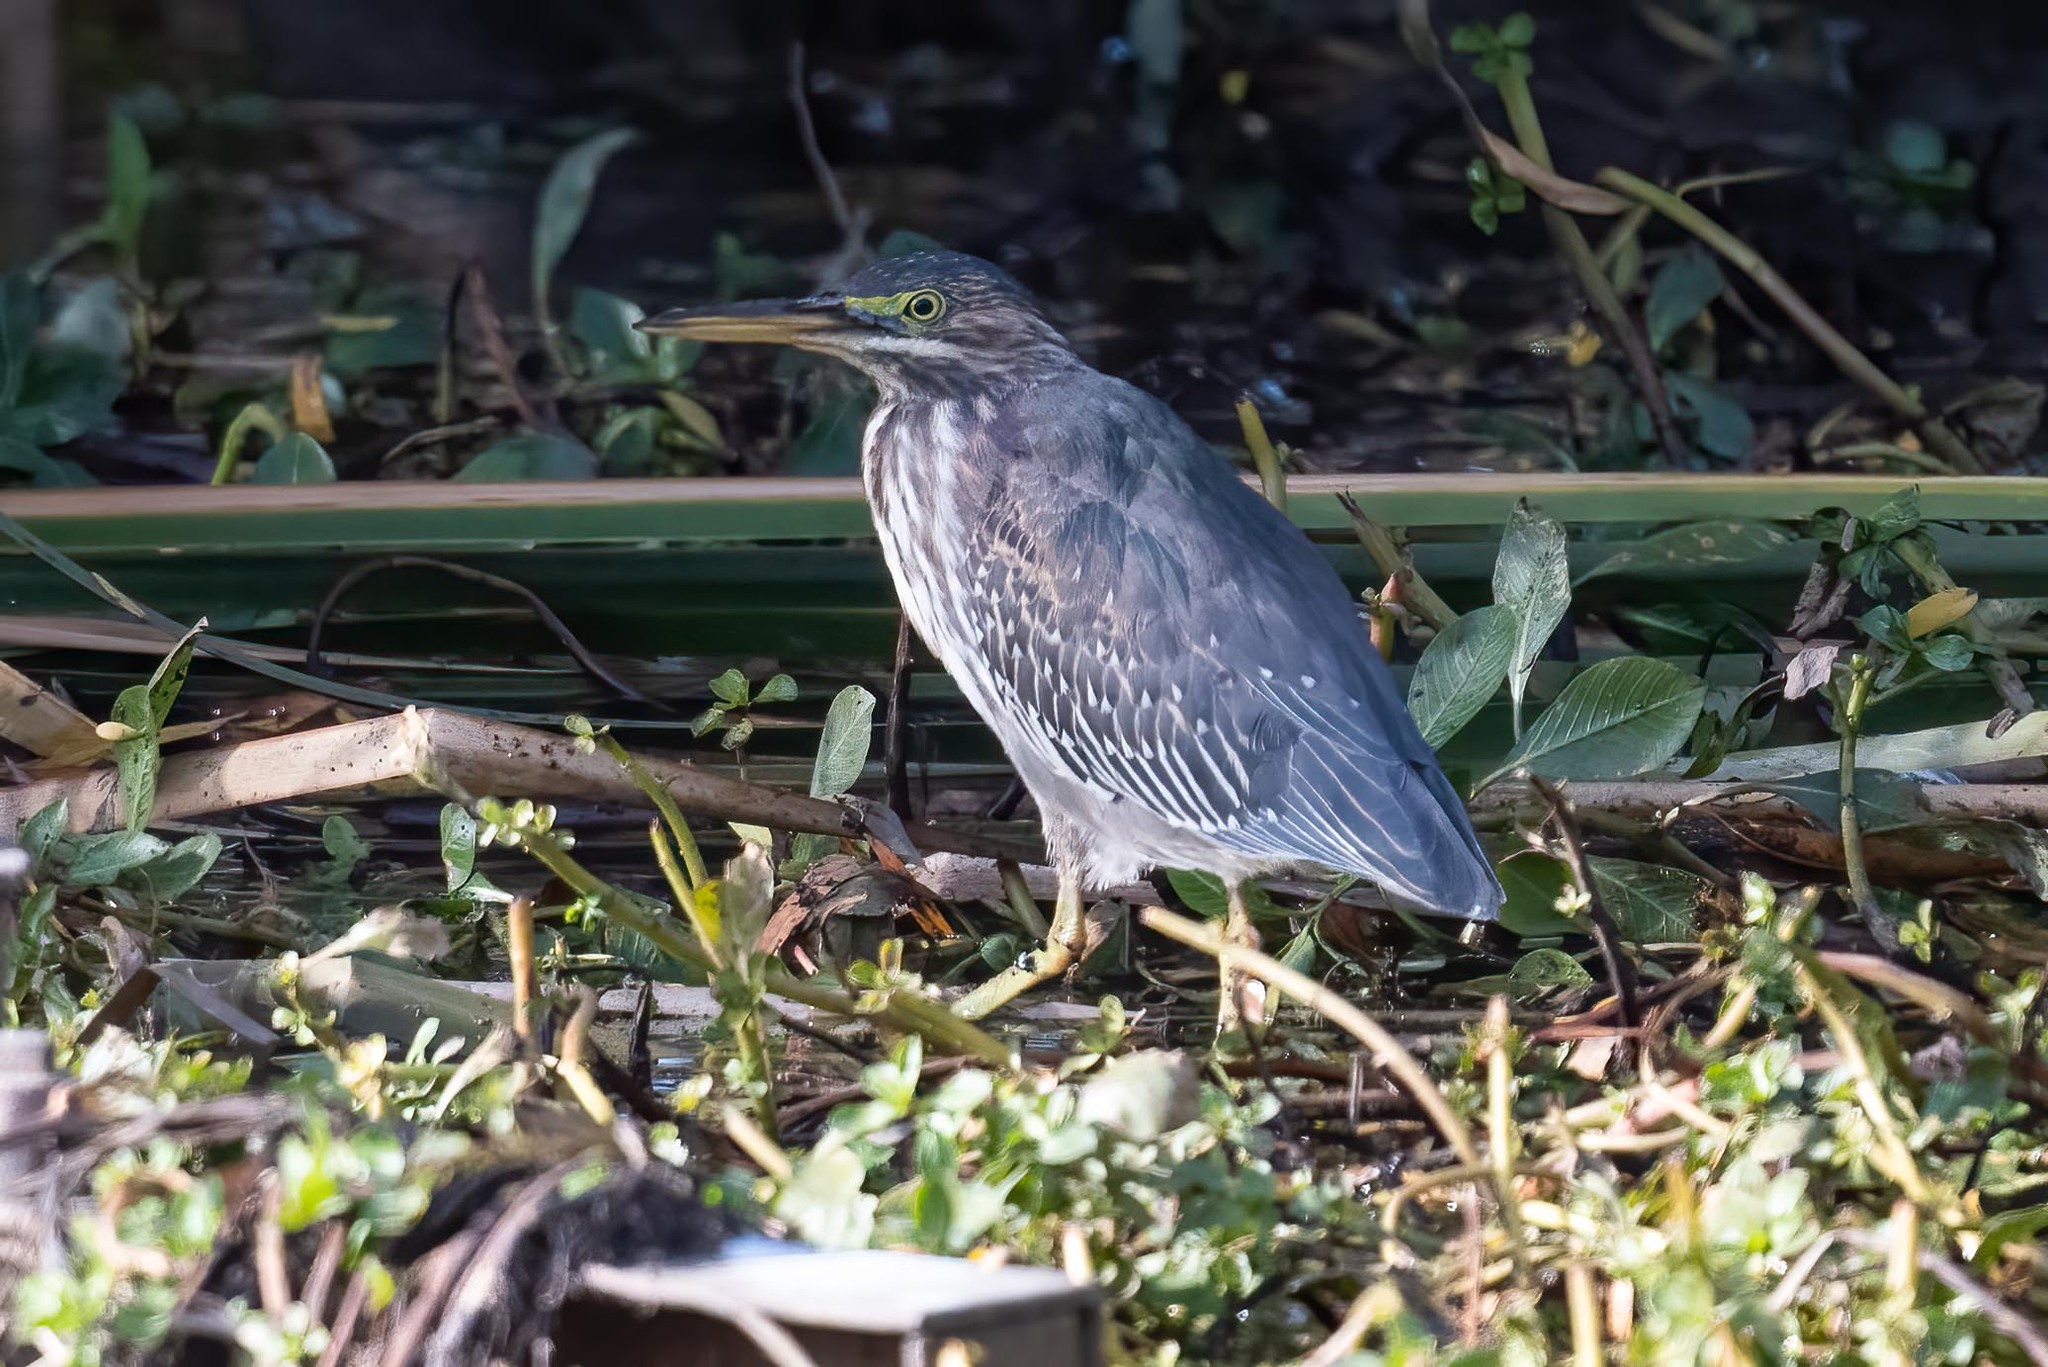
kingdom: Animalia
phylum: Chordata
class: Aves
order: Pelecaniformes
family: Ardeidae
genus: Butorides
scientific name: Butorides virescens
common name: Green heron
